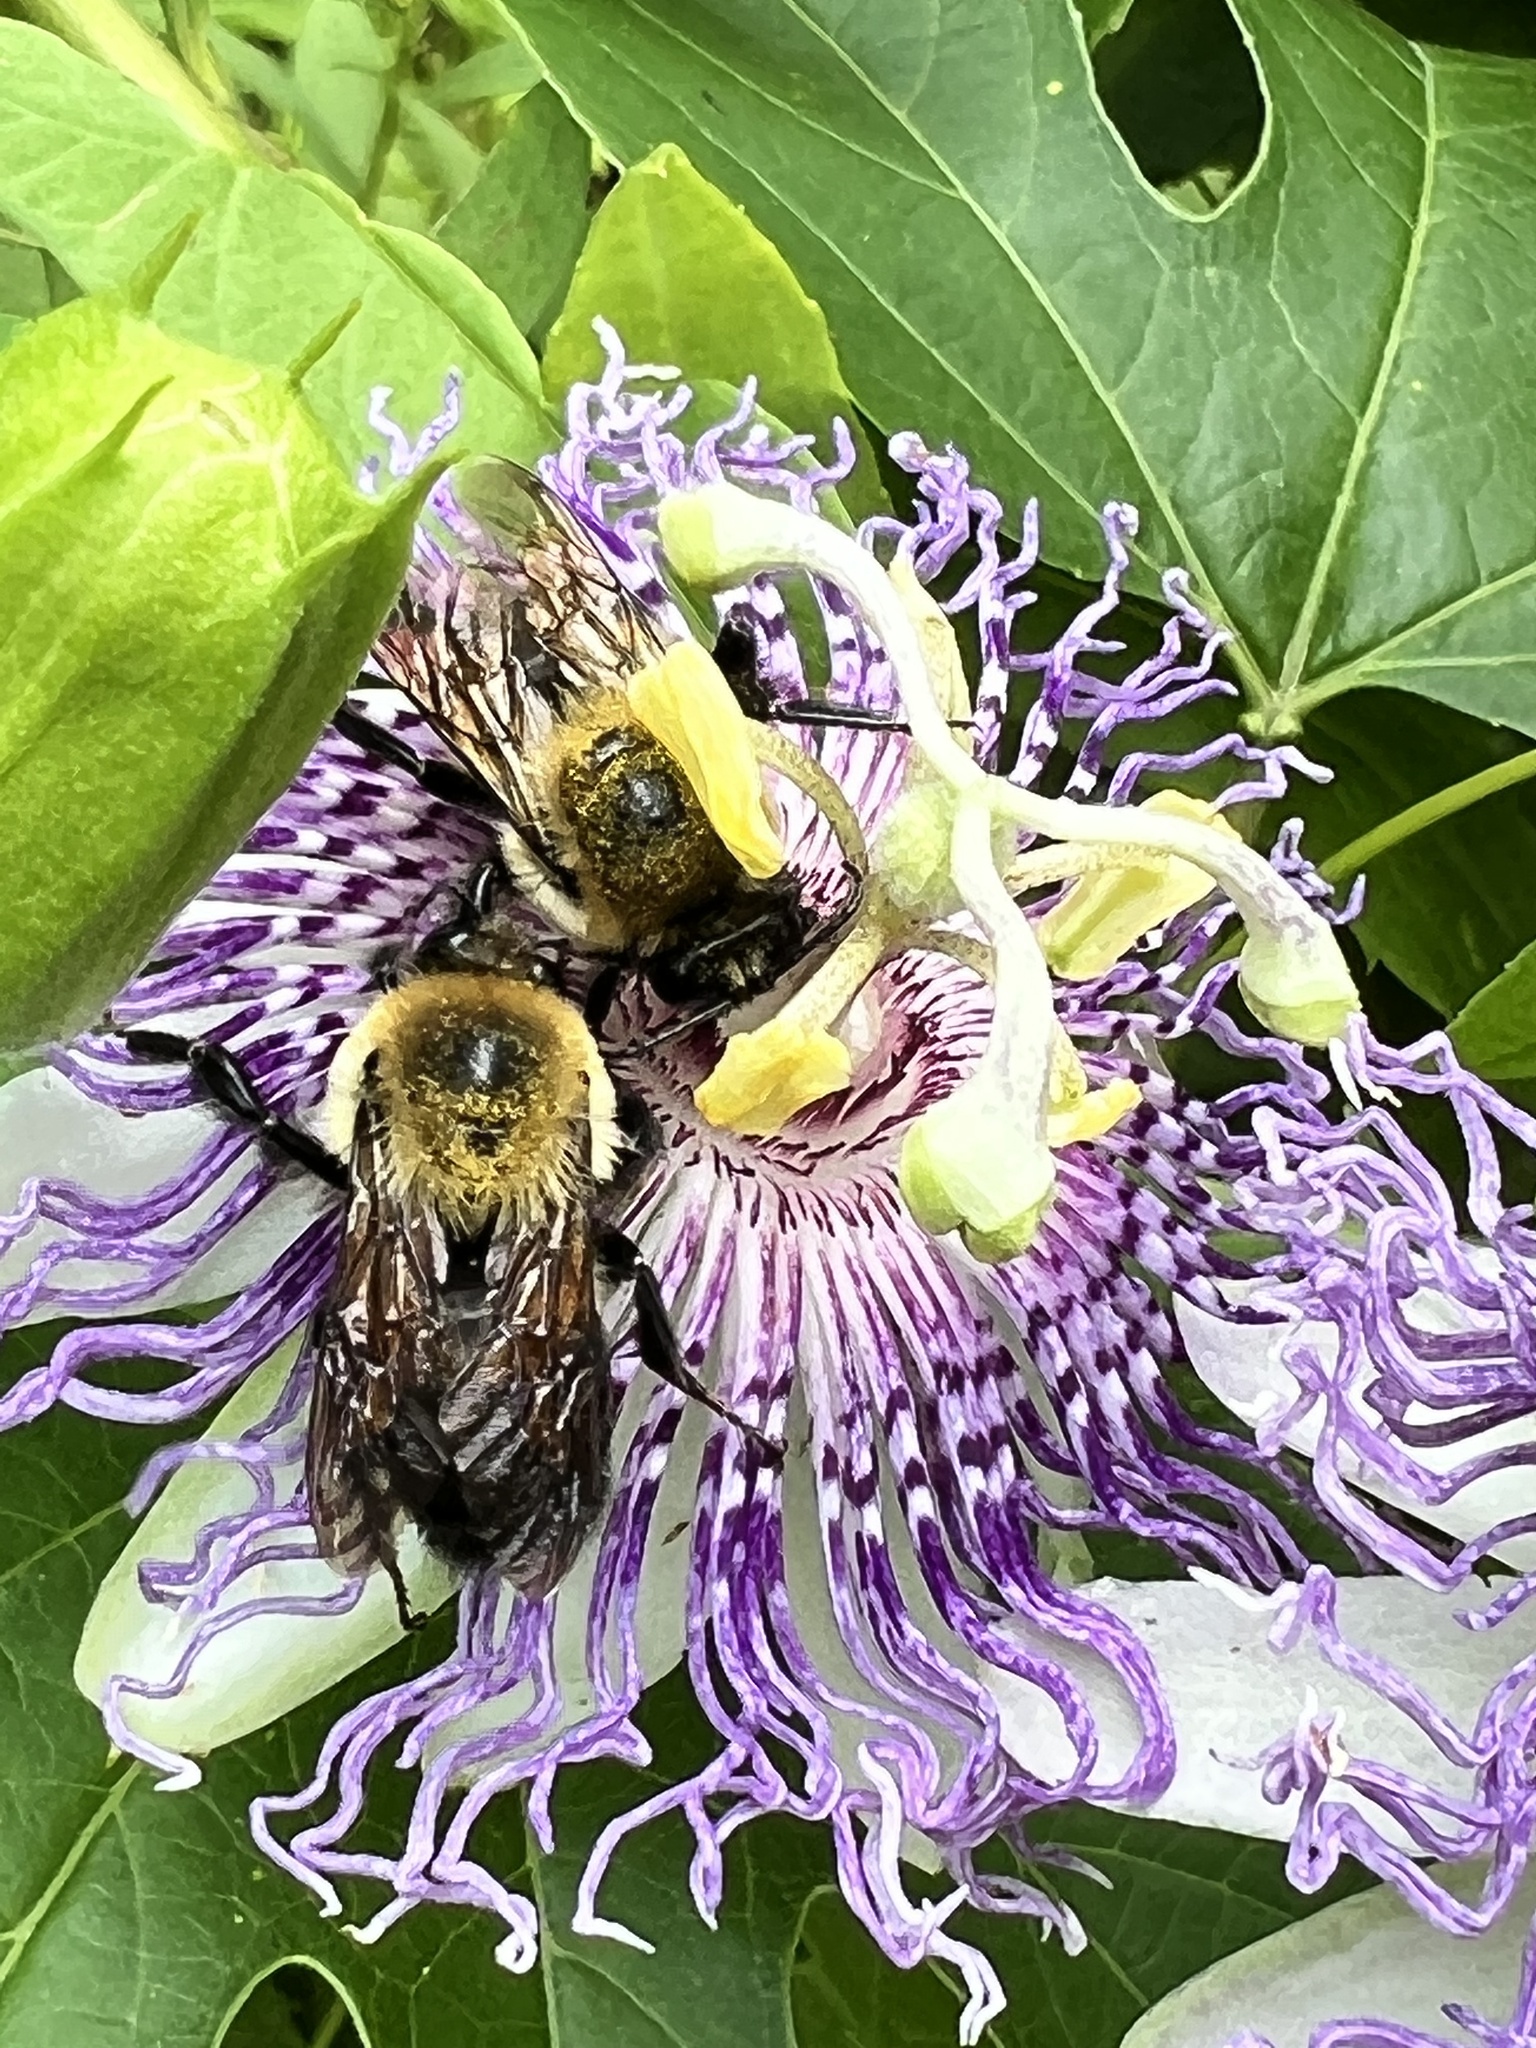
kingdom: Animalia
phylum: Arthropoda
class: Insecta
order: Hymenoptera
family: Apidae
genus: Xylocopa
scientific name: Xylocopa virginica
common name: Carpenter bee
